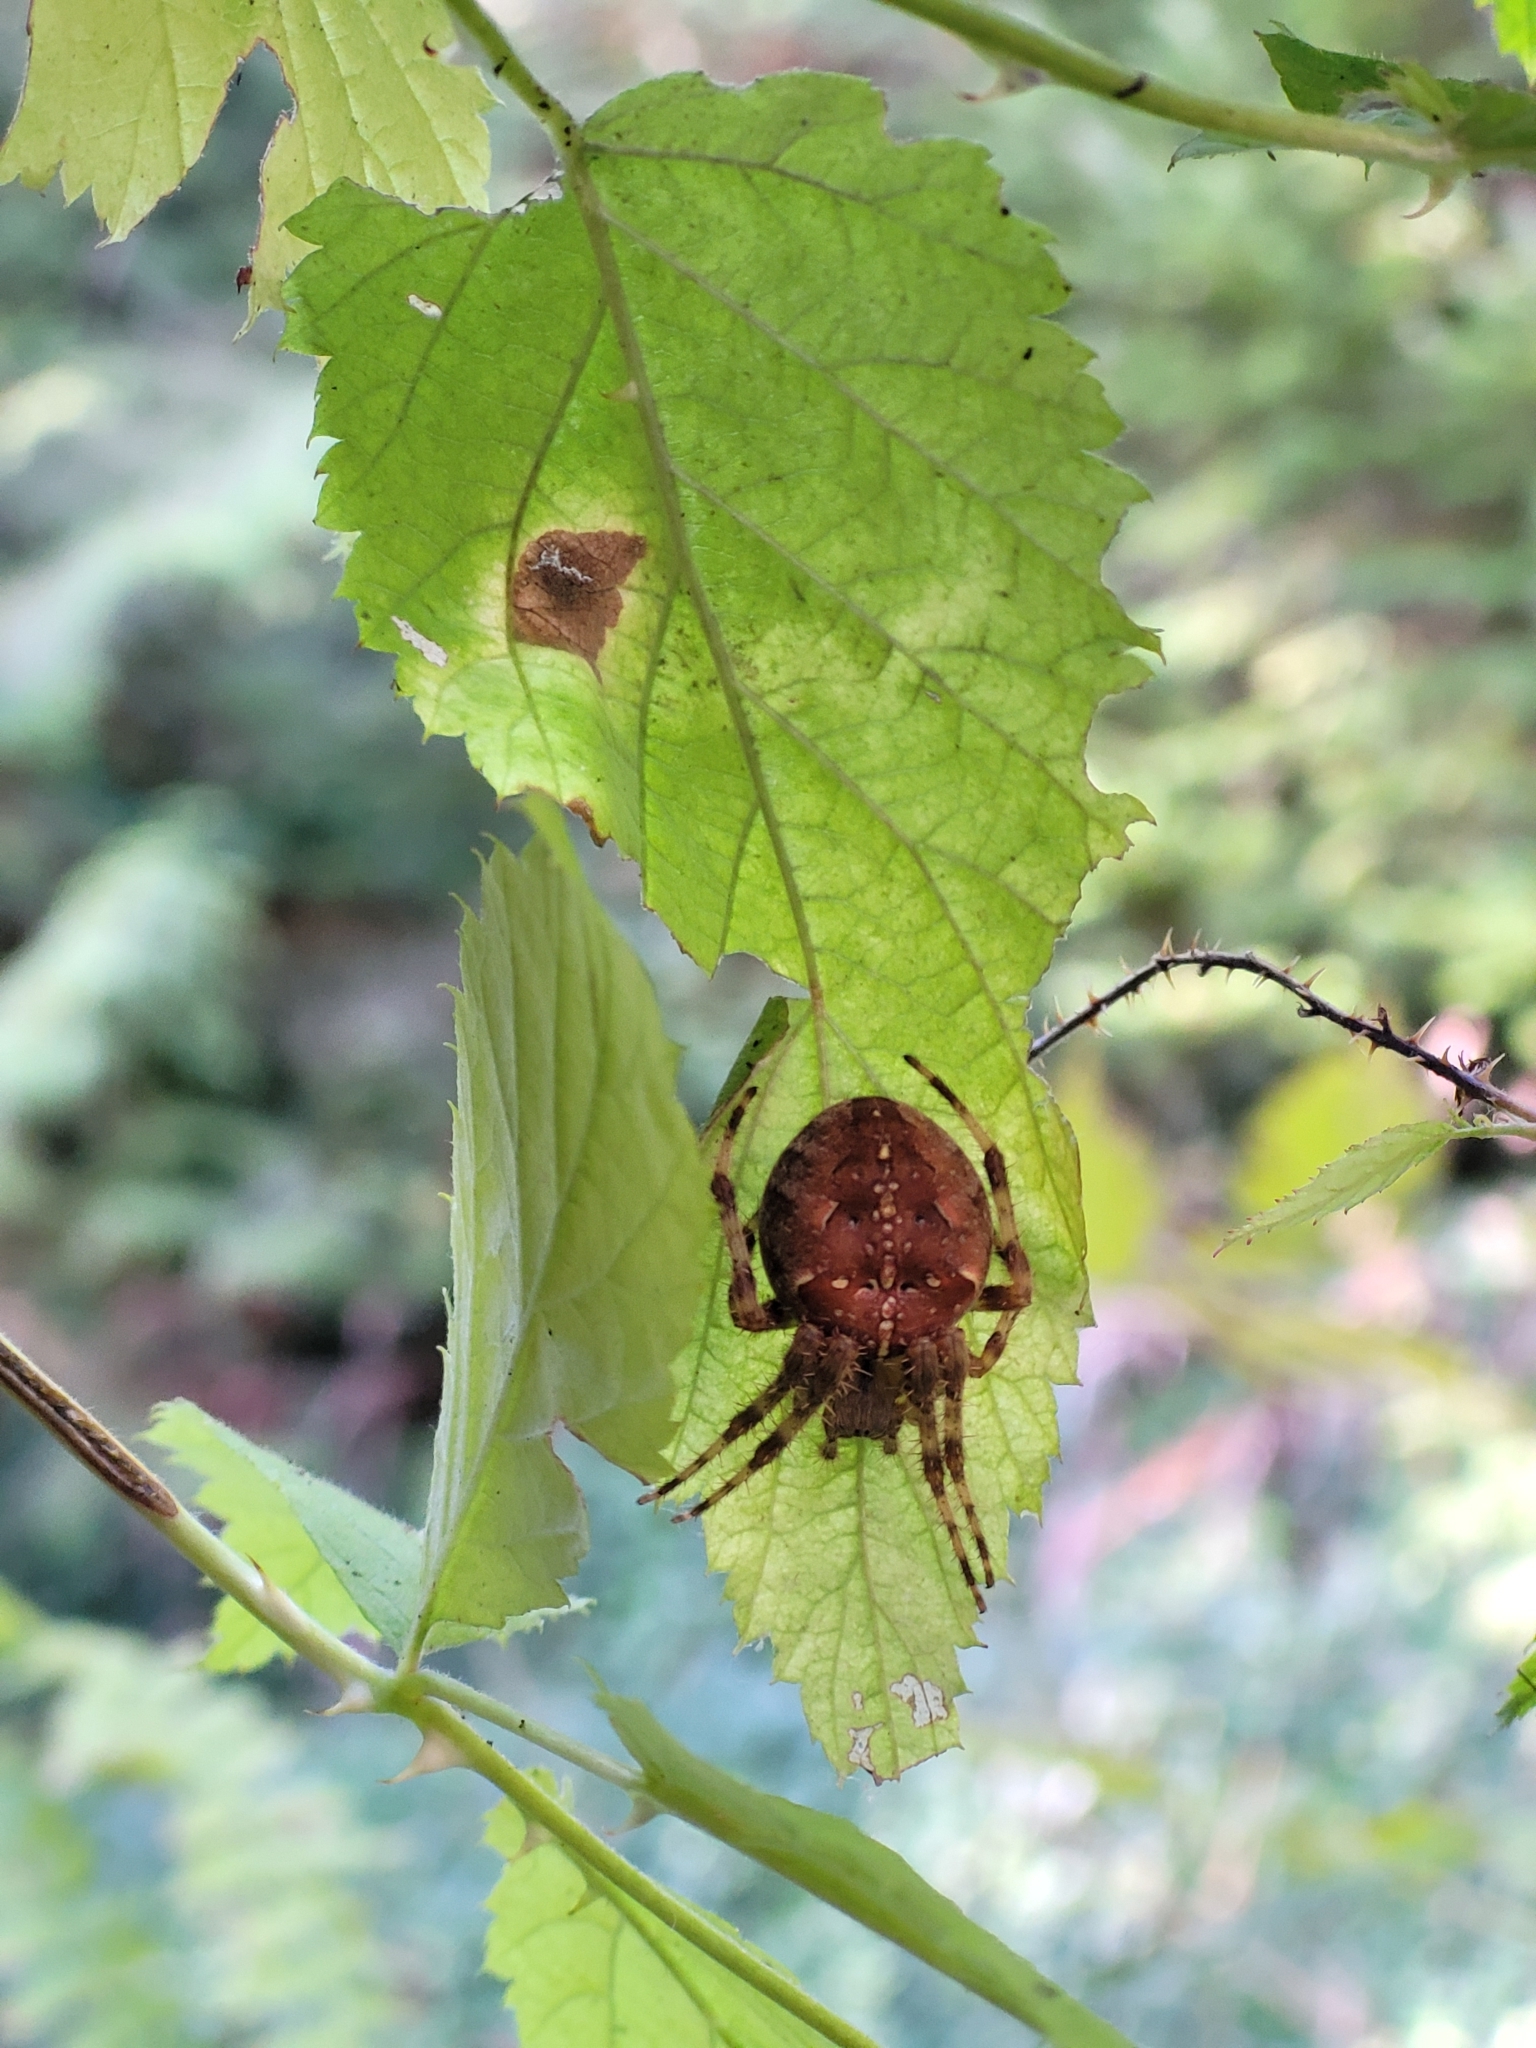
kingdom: Animalia
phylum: Arthropoda
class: Arachnida
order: Araneae
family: Araneidae
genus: Araneus
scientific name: Araneus diadematus
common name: Cross orbweaver
